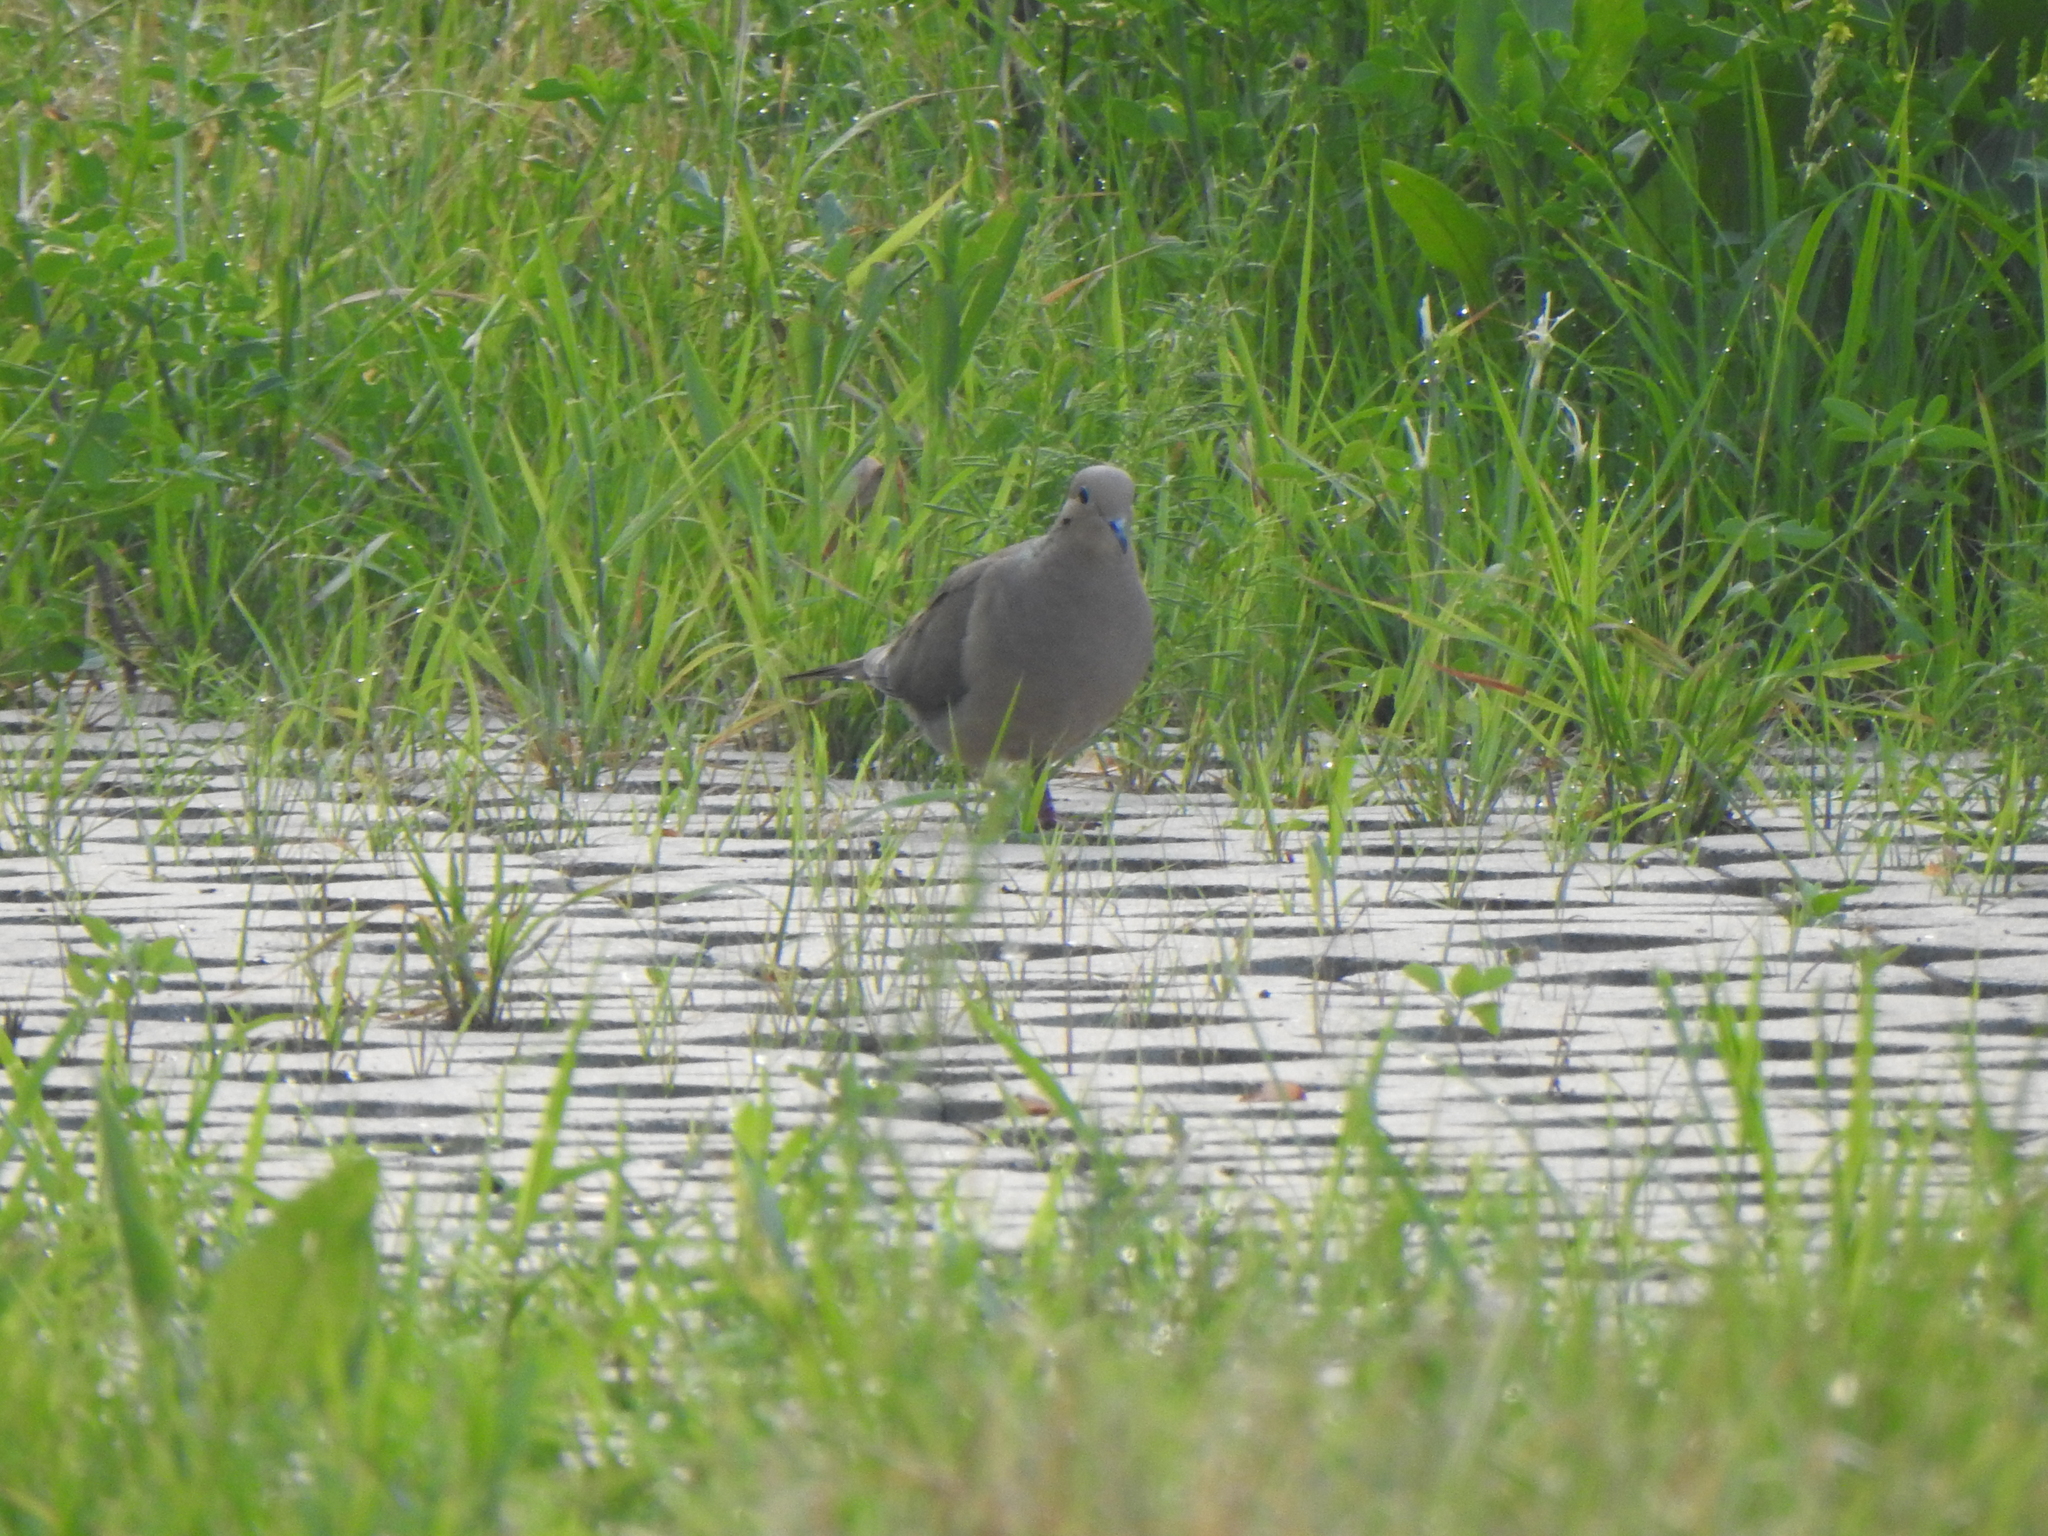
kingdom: Animalia
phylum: Chordata
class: Aves
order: Columbiformes
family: Columbidae
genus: Zenaida
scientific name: Zenaida macroura
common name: Mourning dove
